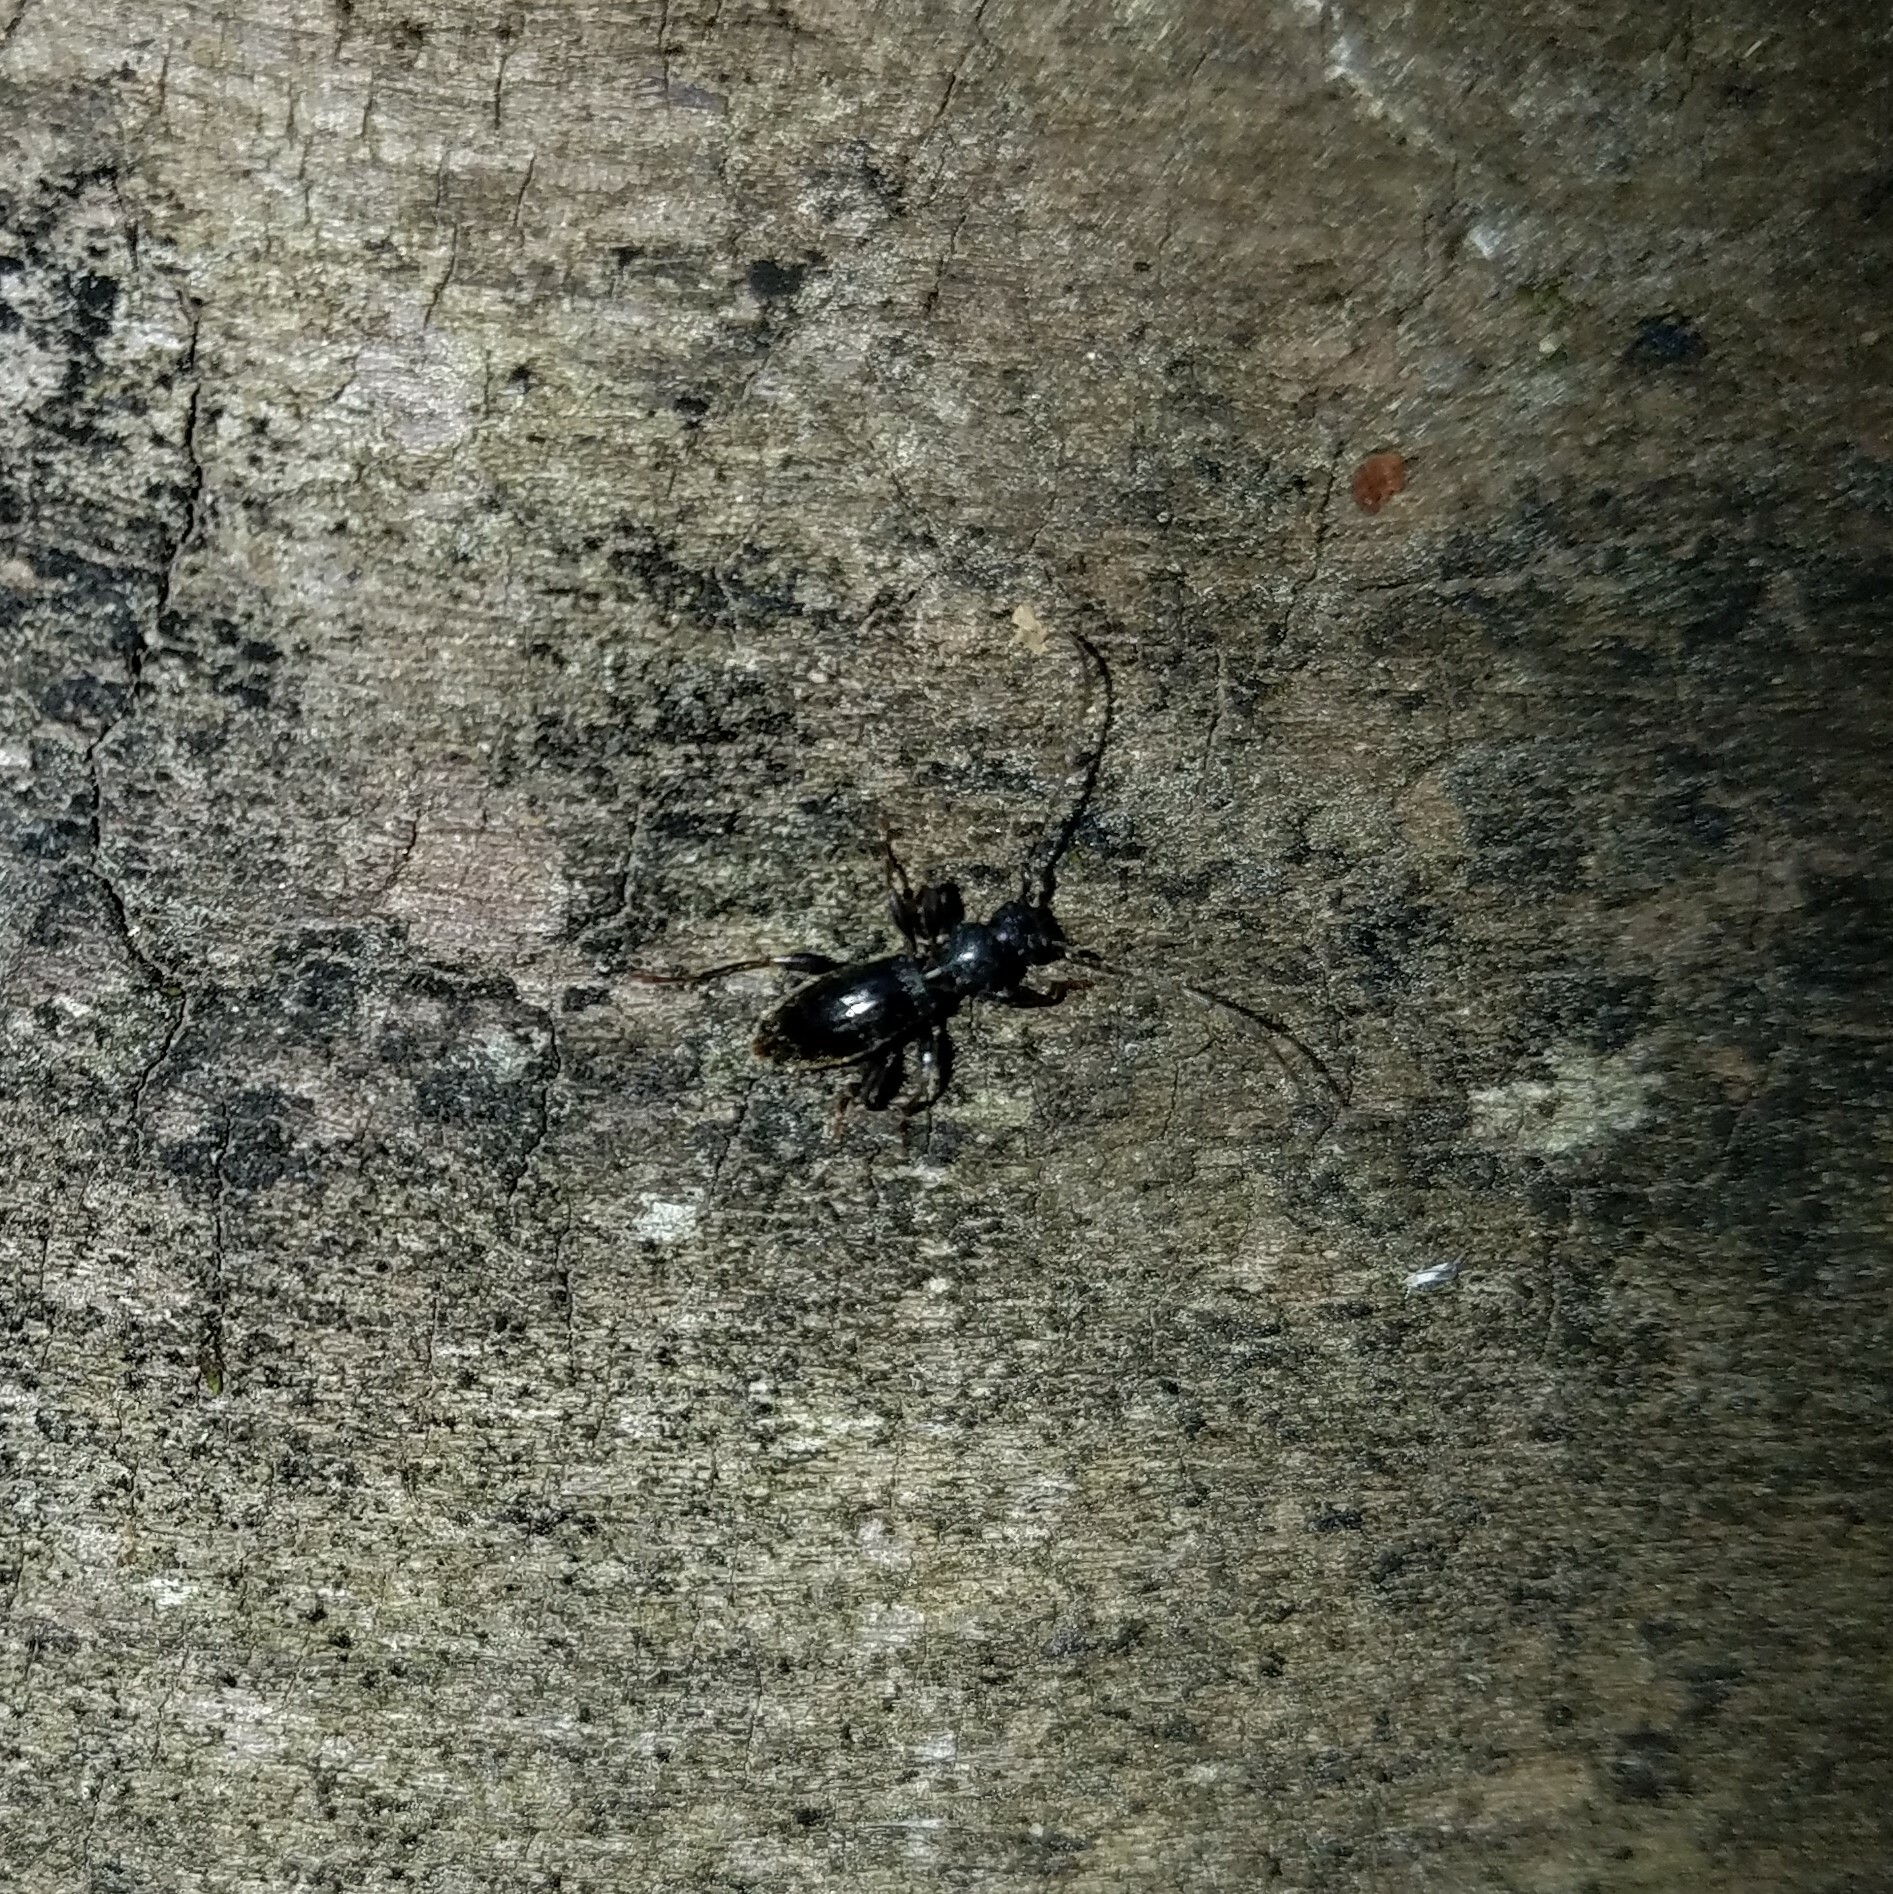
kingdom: Animalia
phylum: Arthropoda
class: Insecta
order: Coleoptera
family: Cerambycidae
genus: Michthisoma
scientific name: Michthisoma heterodoxum
